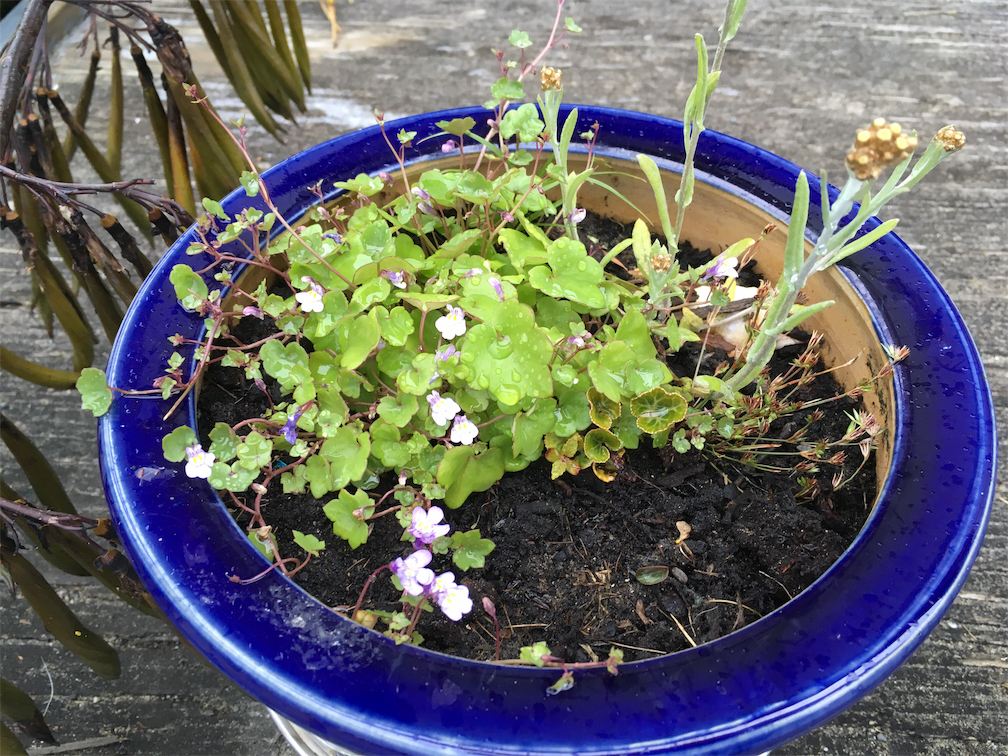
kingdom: Plantae
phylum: Tracheophyta
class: Magnoliopsida
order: Lamiales
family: Plantaginaceae
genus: Cymbalaria
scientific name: Cymbalaria muralis
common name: Ivy-leaved toadflax
